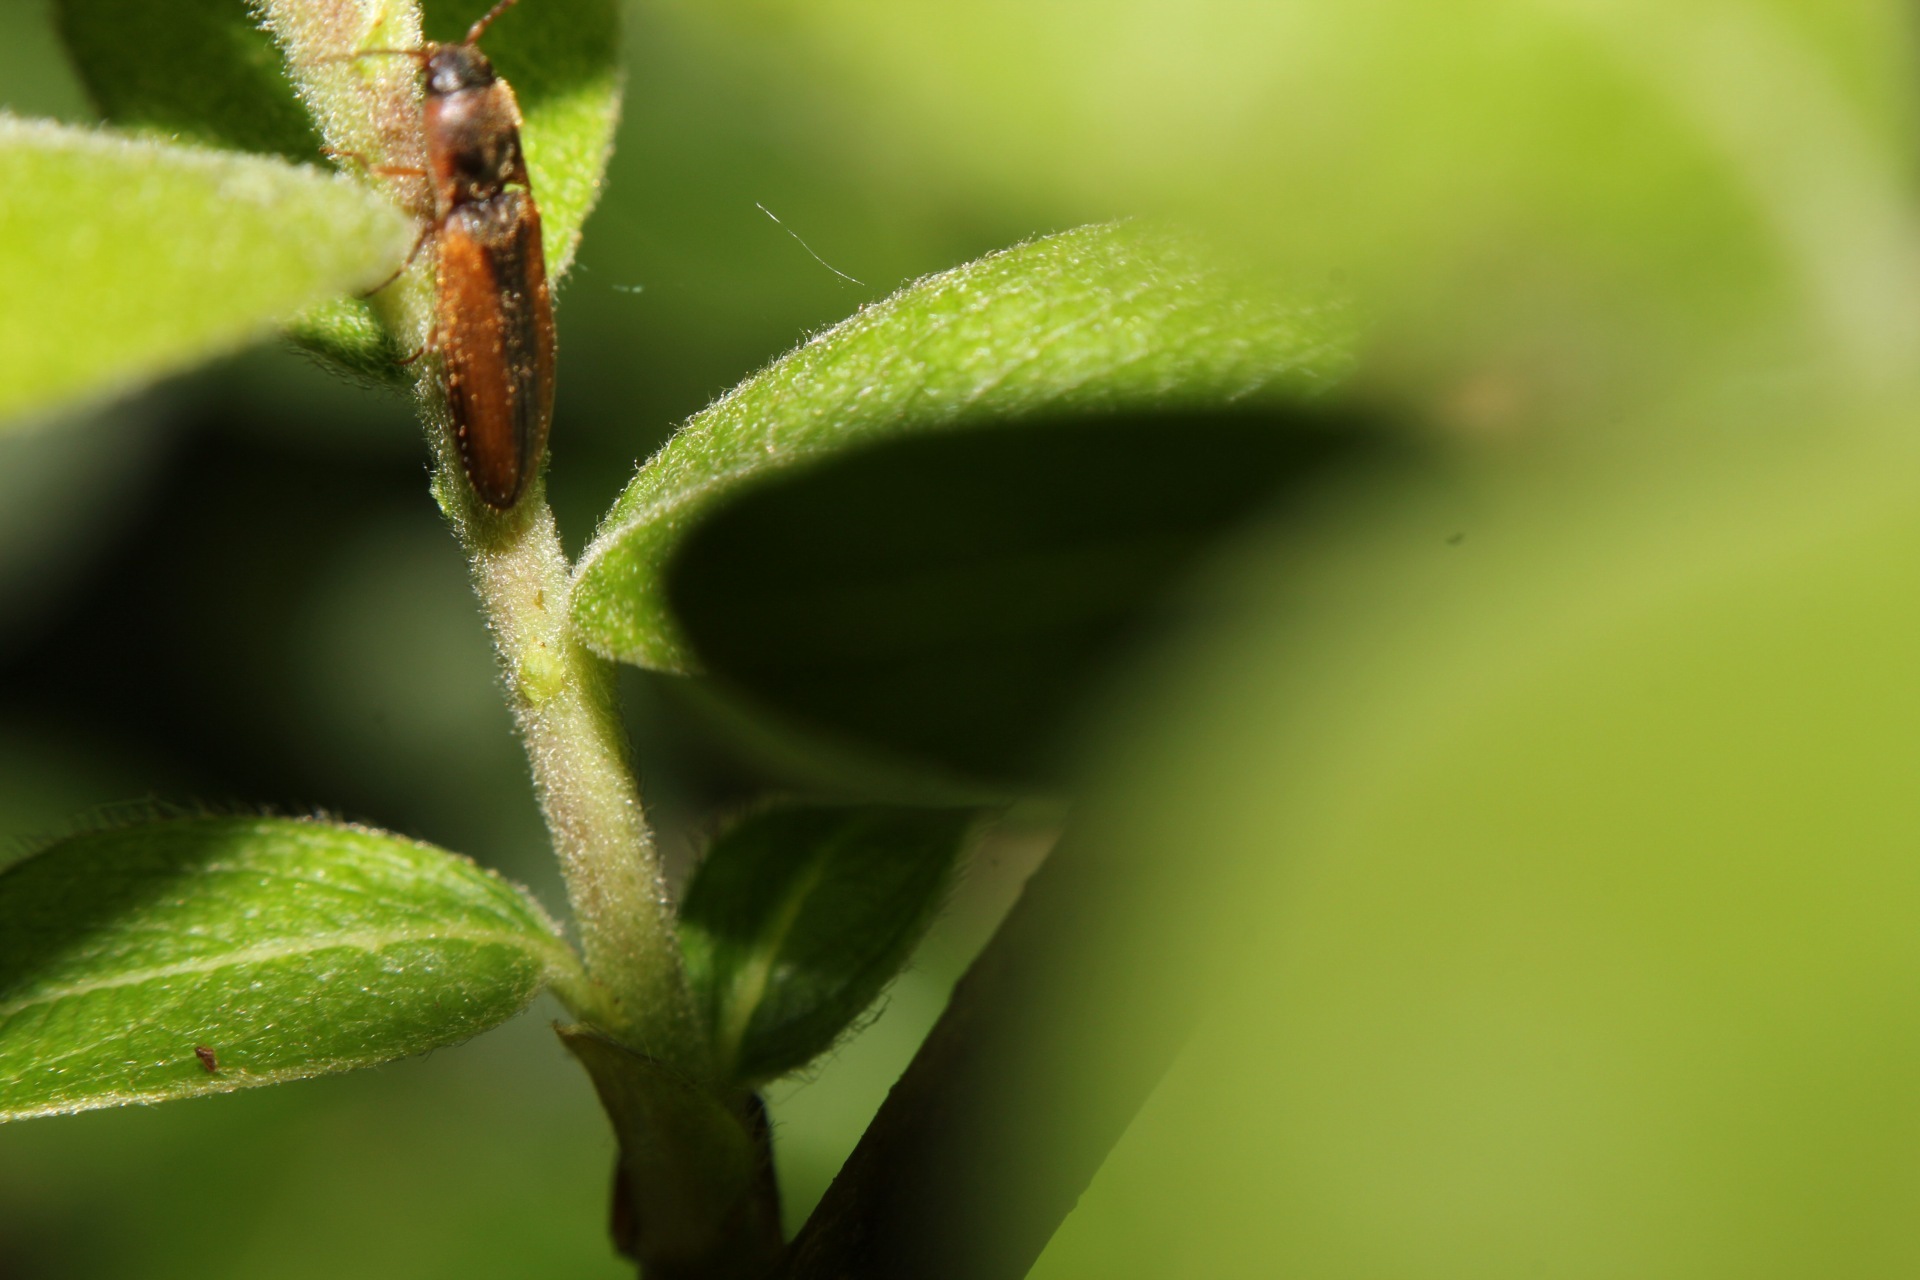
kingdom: Animalia
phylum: Arthropoda
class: Insecta
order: Coleoptera
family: Elateridae
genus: Dalopius
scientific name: Dalopius marginatus
